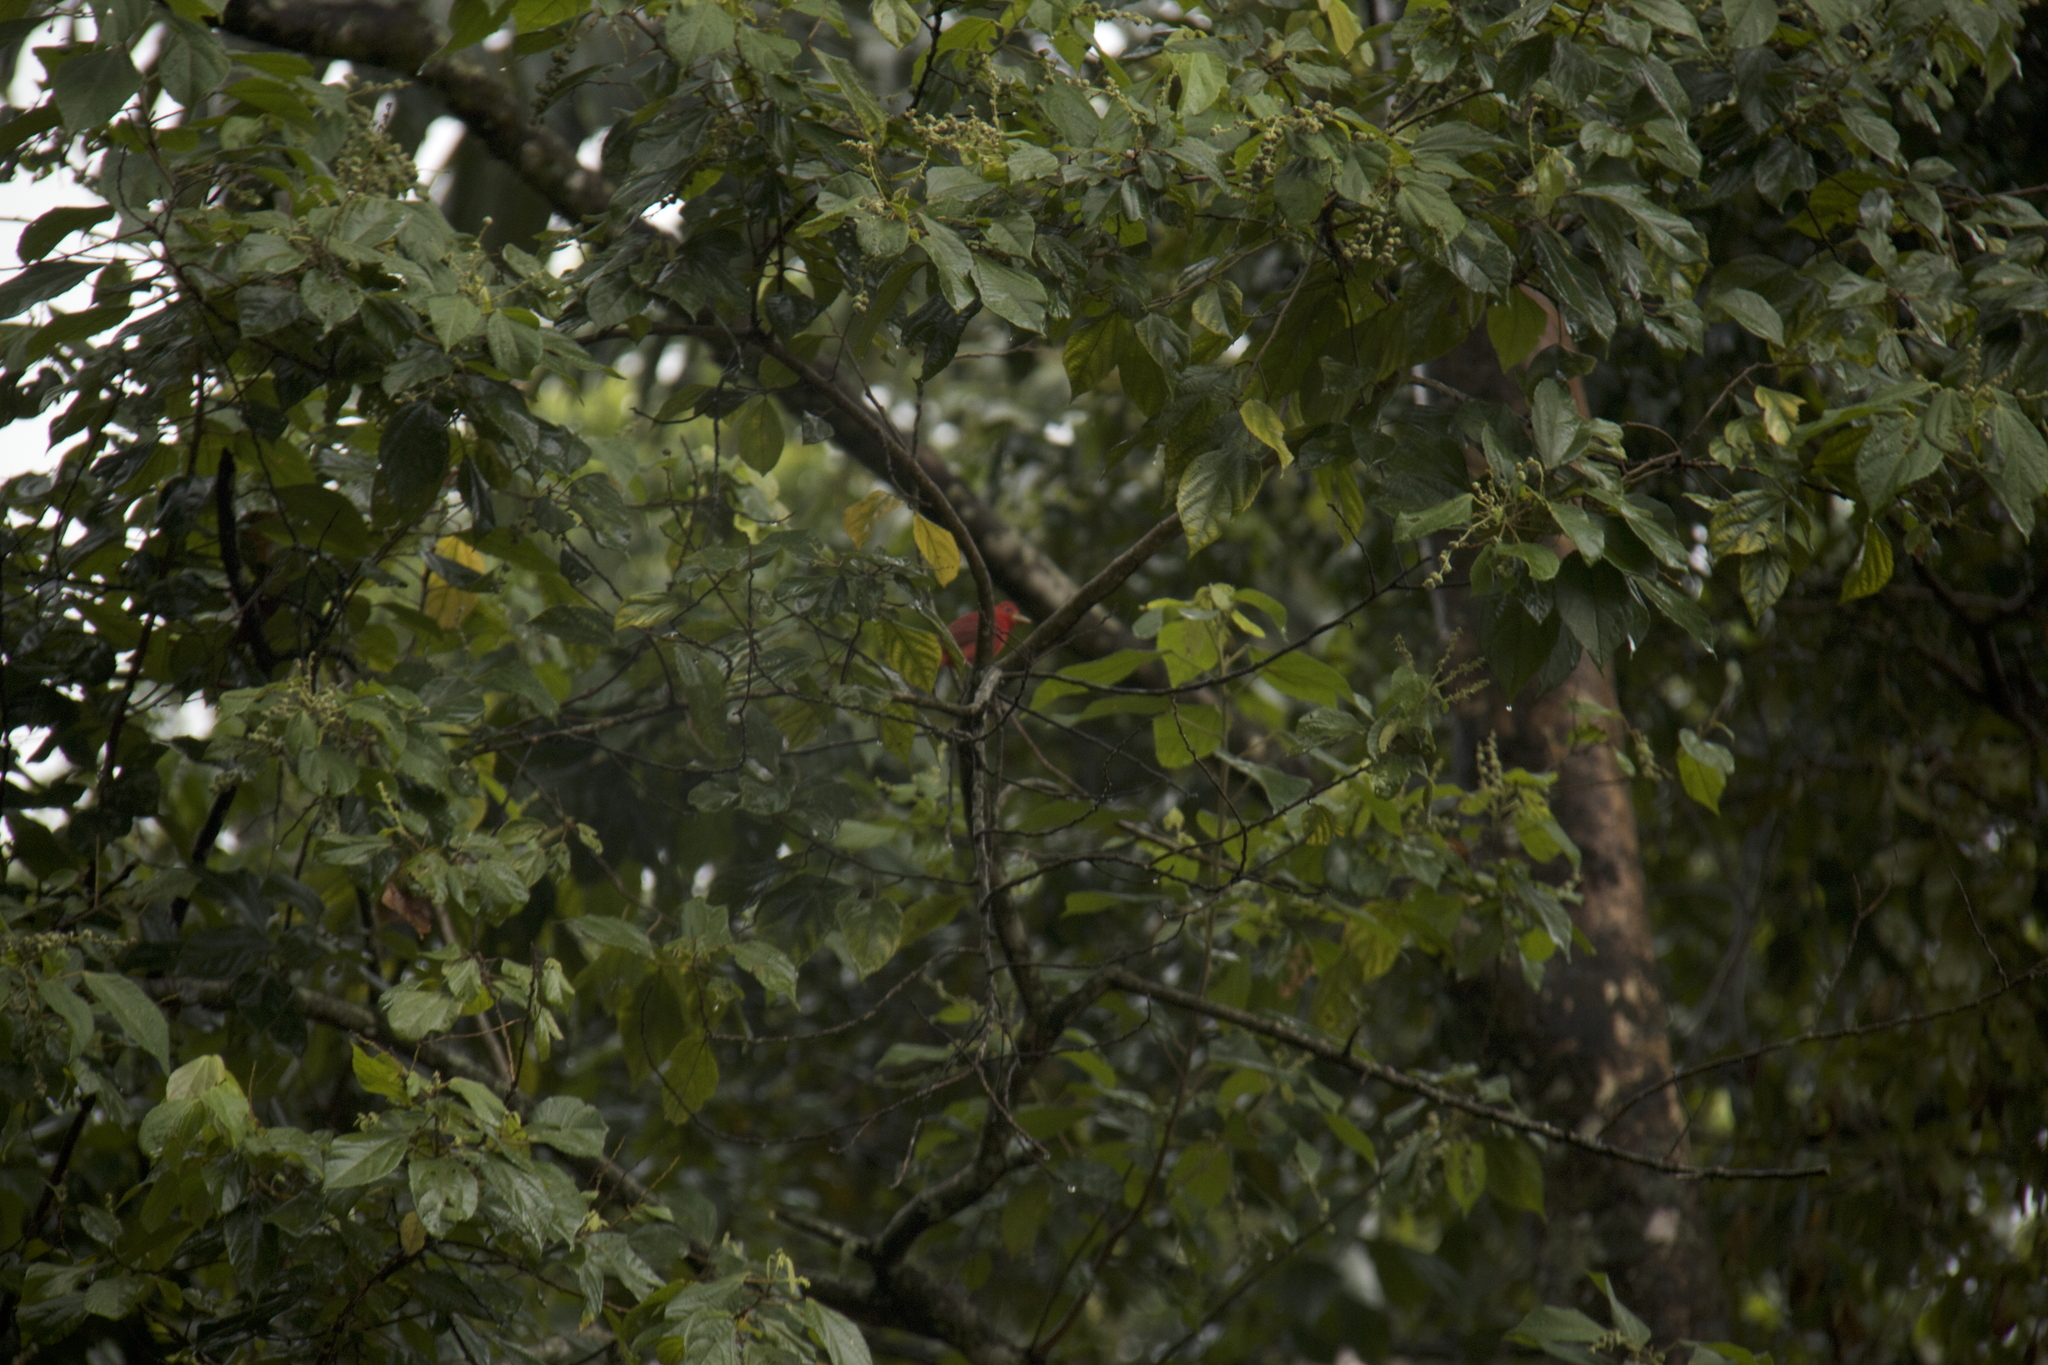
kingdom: Animalia
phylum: Chordata
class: Aves
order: Passeriformes
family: Cardinalidae
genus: Piranga
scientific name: Piranga rubra
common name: Summer tanager
